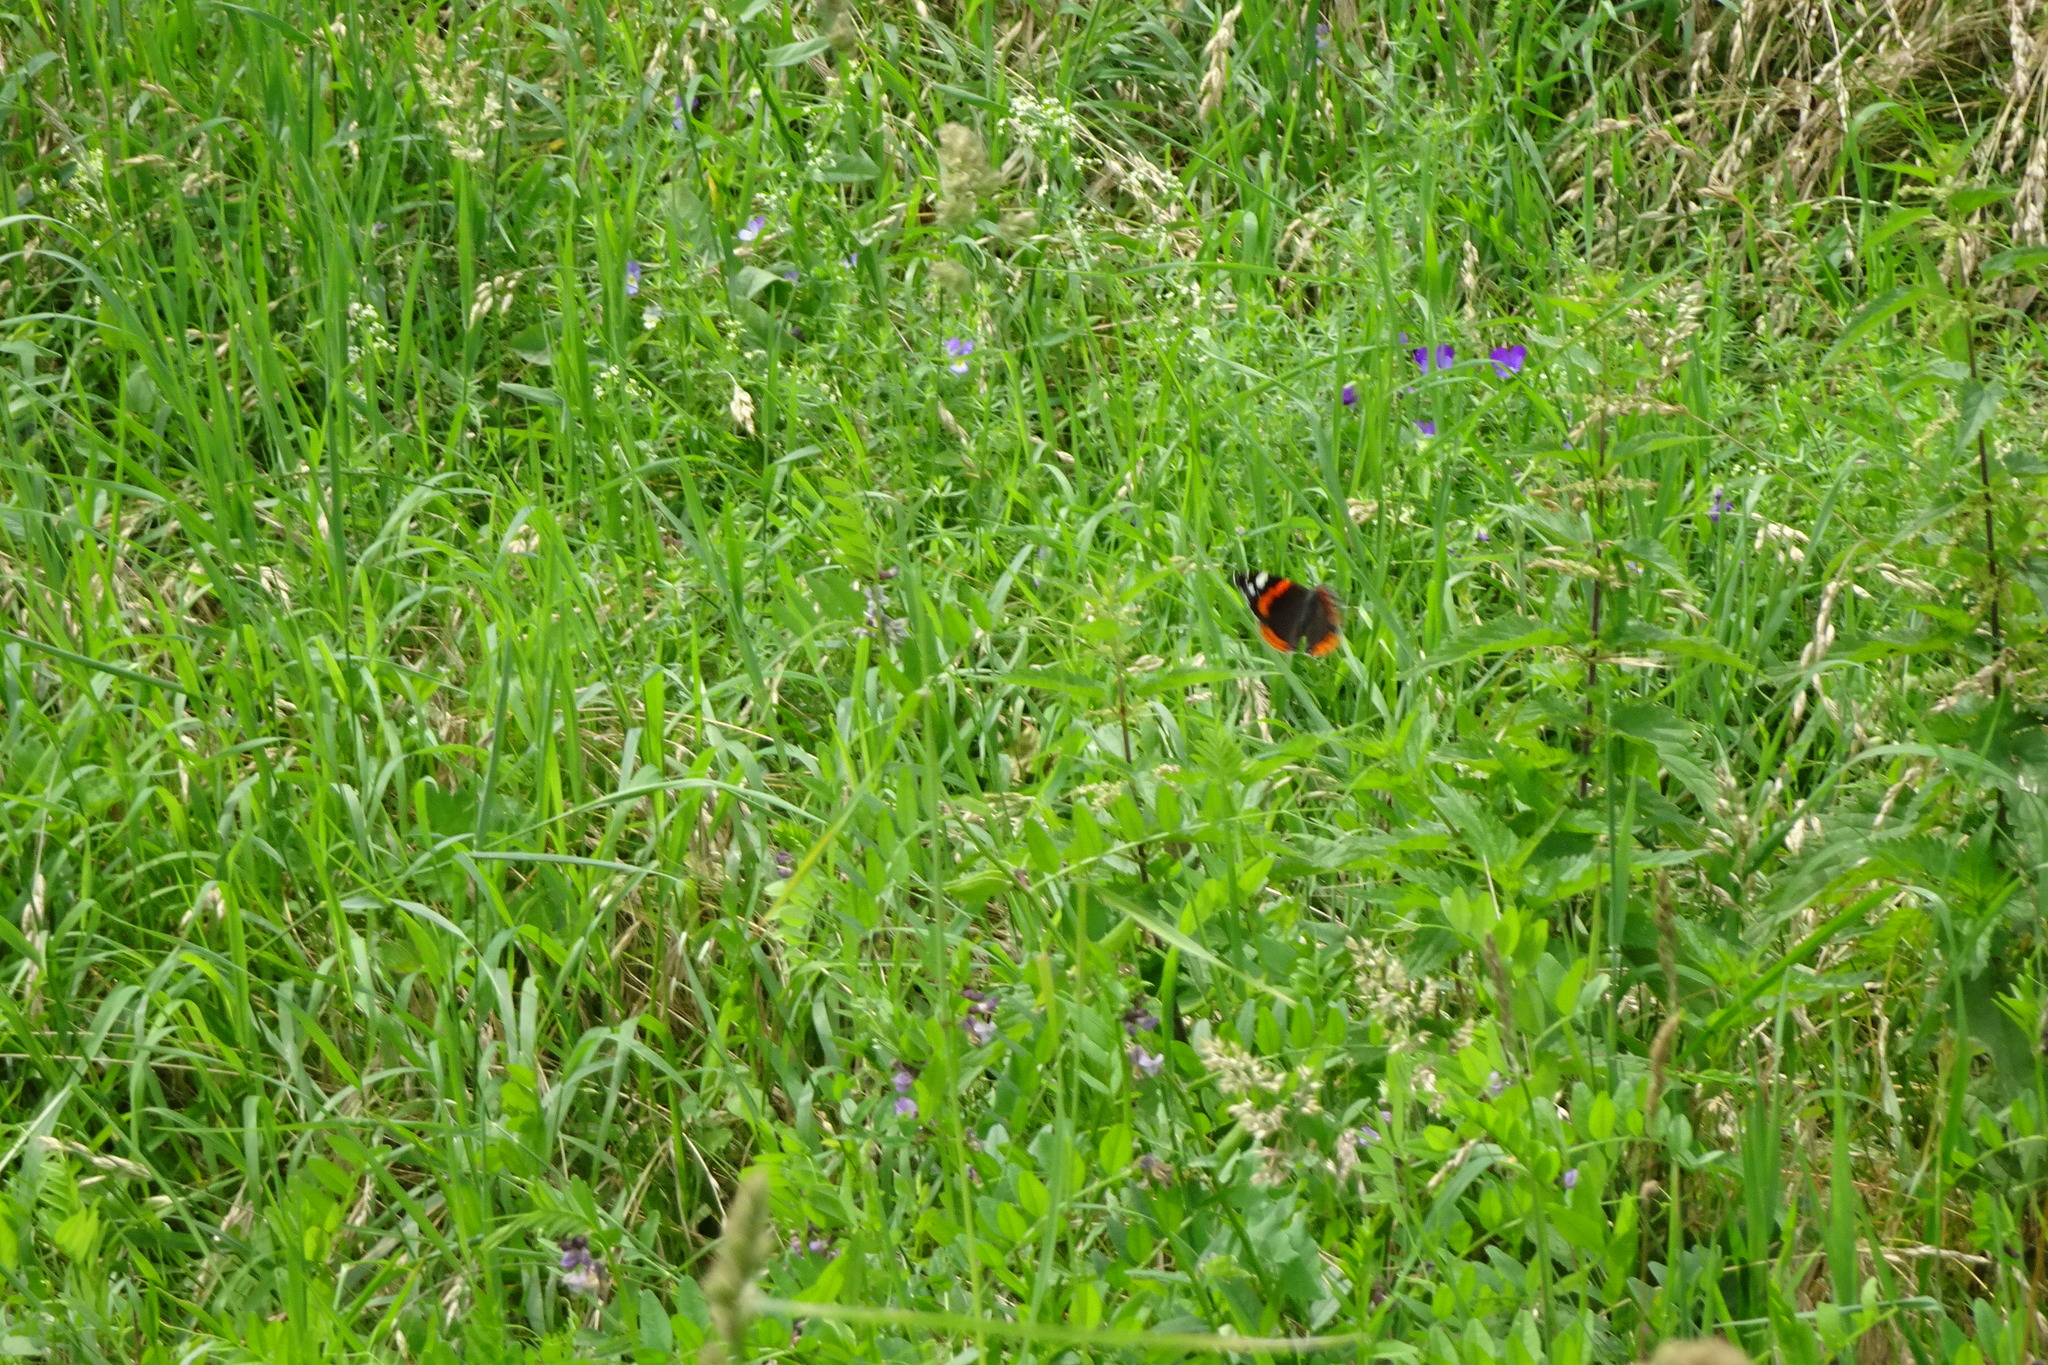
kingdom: Animalia
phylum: Arthropoda
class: Insecta
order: Lepidoptera
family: Nymphalidae
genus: Vanessa
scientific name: Vanessa atalanta
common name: Red admiral
